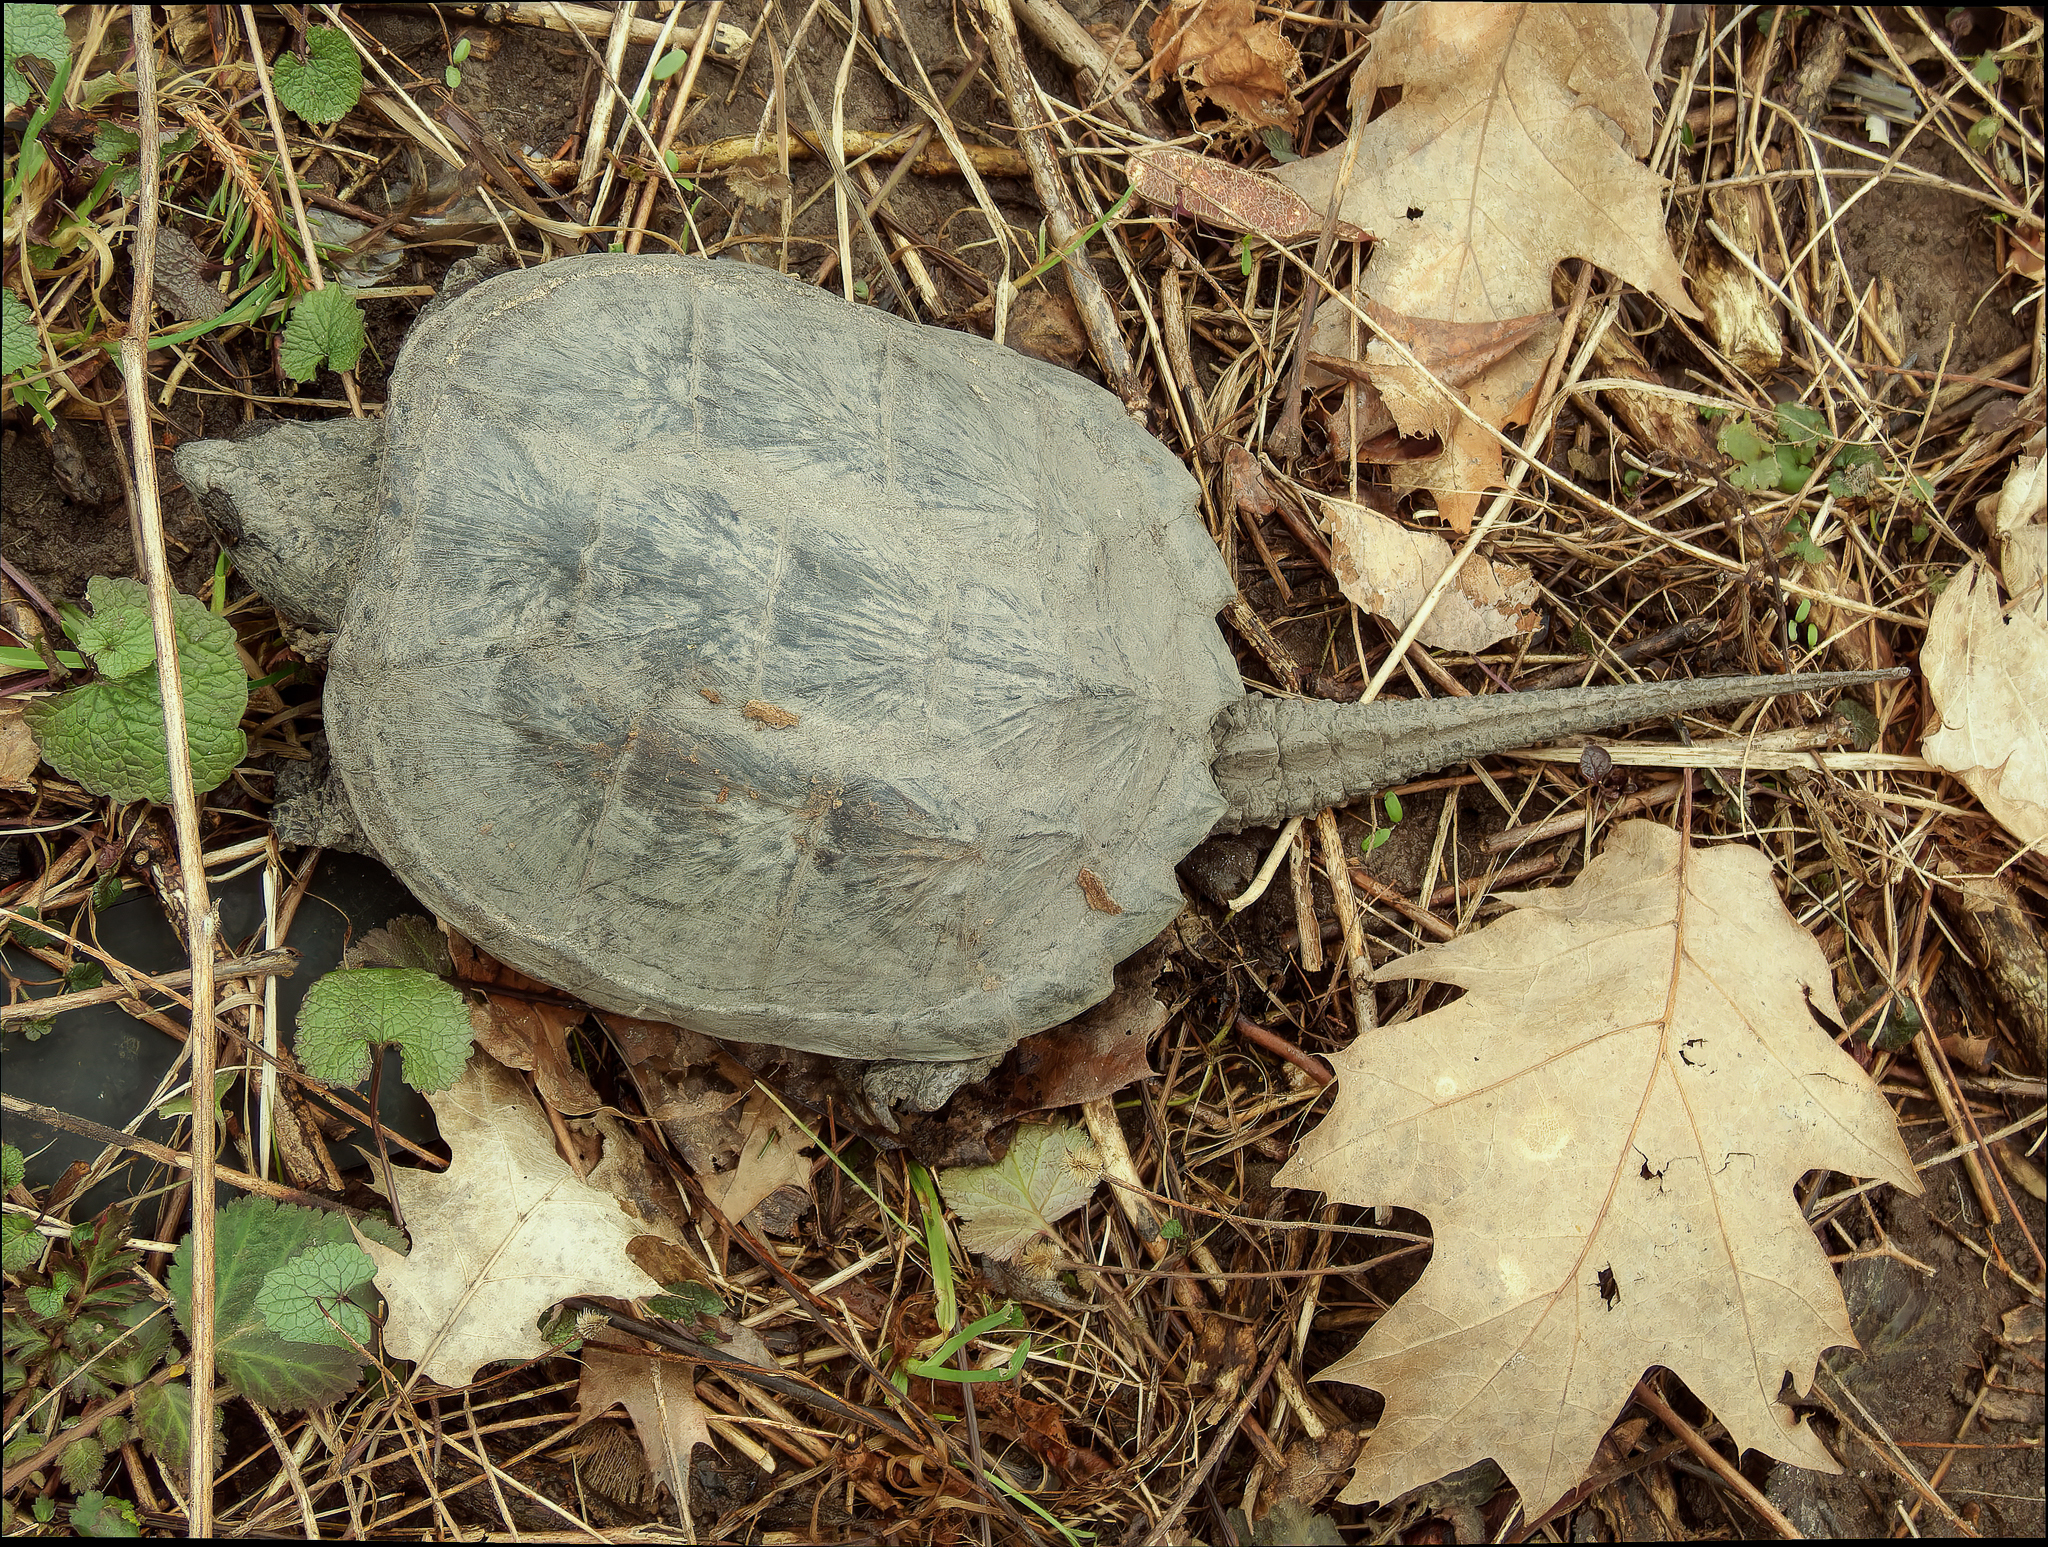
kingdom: Animalia
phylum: Chordata
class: Testudines
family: Chelydridae
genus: Chelydra
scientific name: Chelydra serpentina
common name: Common snapping turtle
